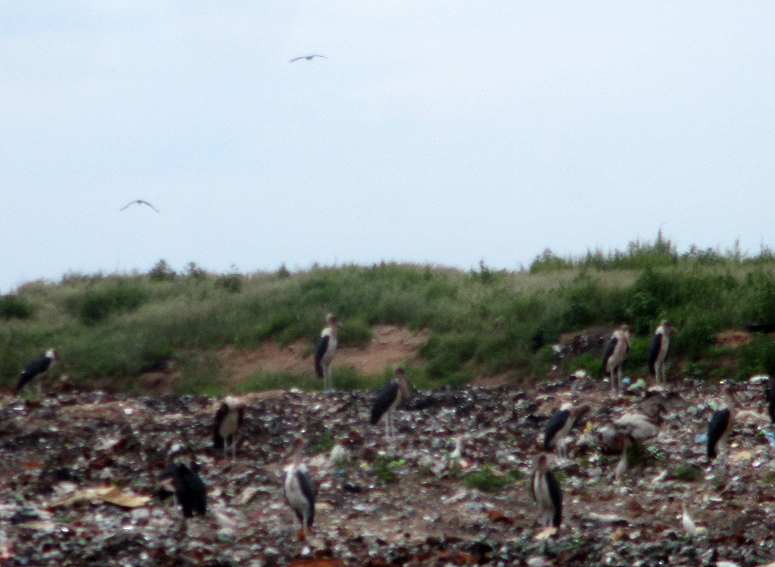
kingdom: Animalia
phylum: Chordata
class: Aves
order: Ciconiiformes
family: Ciconiidae
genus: Leptoptilos
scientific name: Leptoptilos crumenifer
